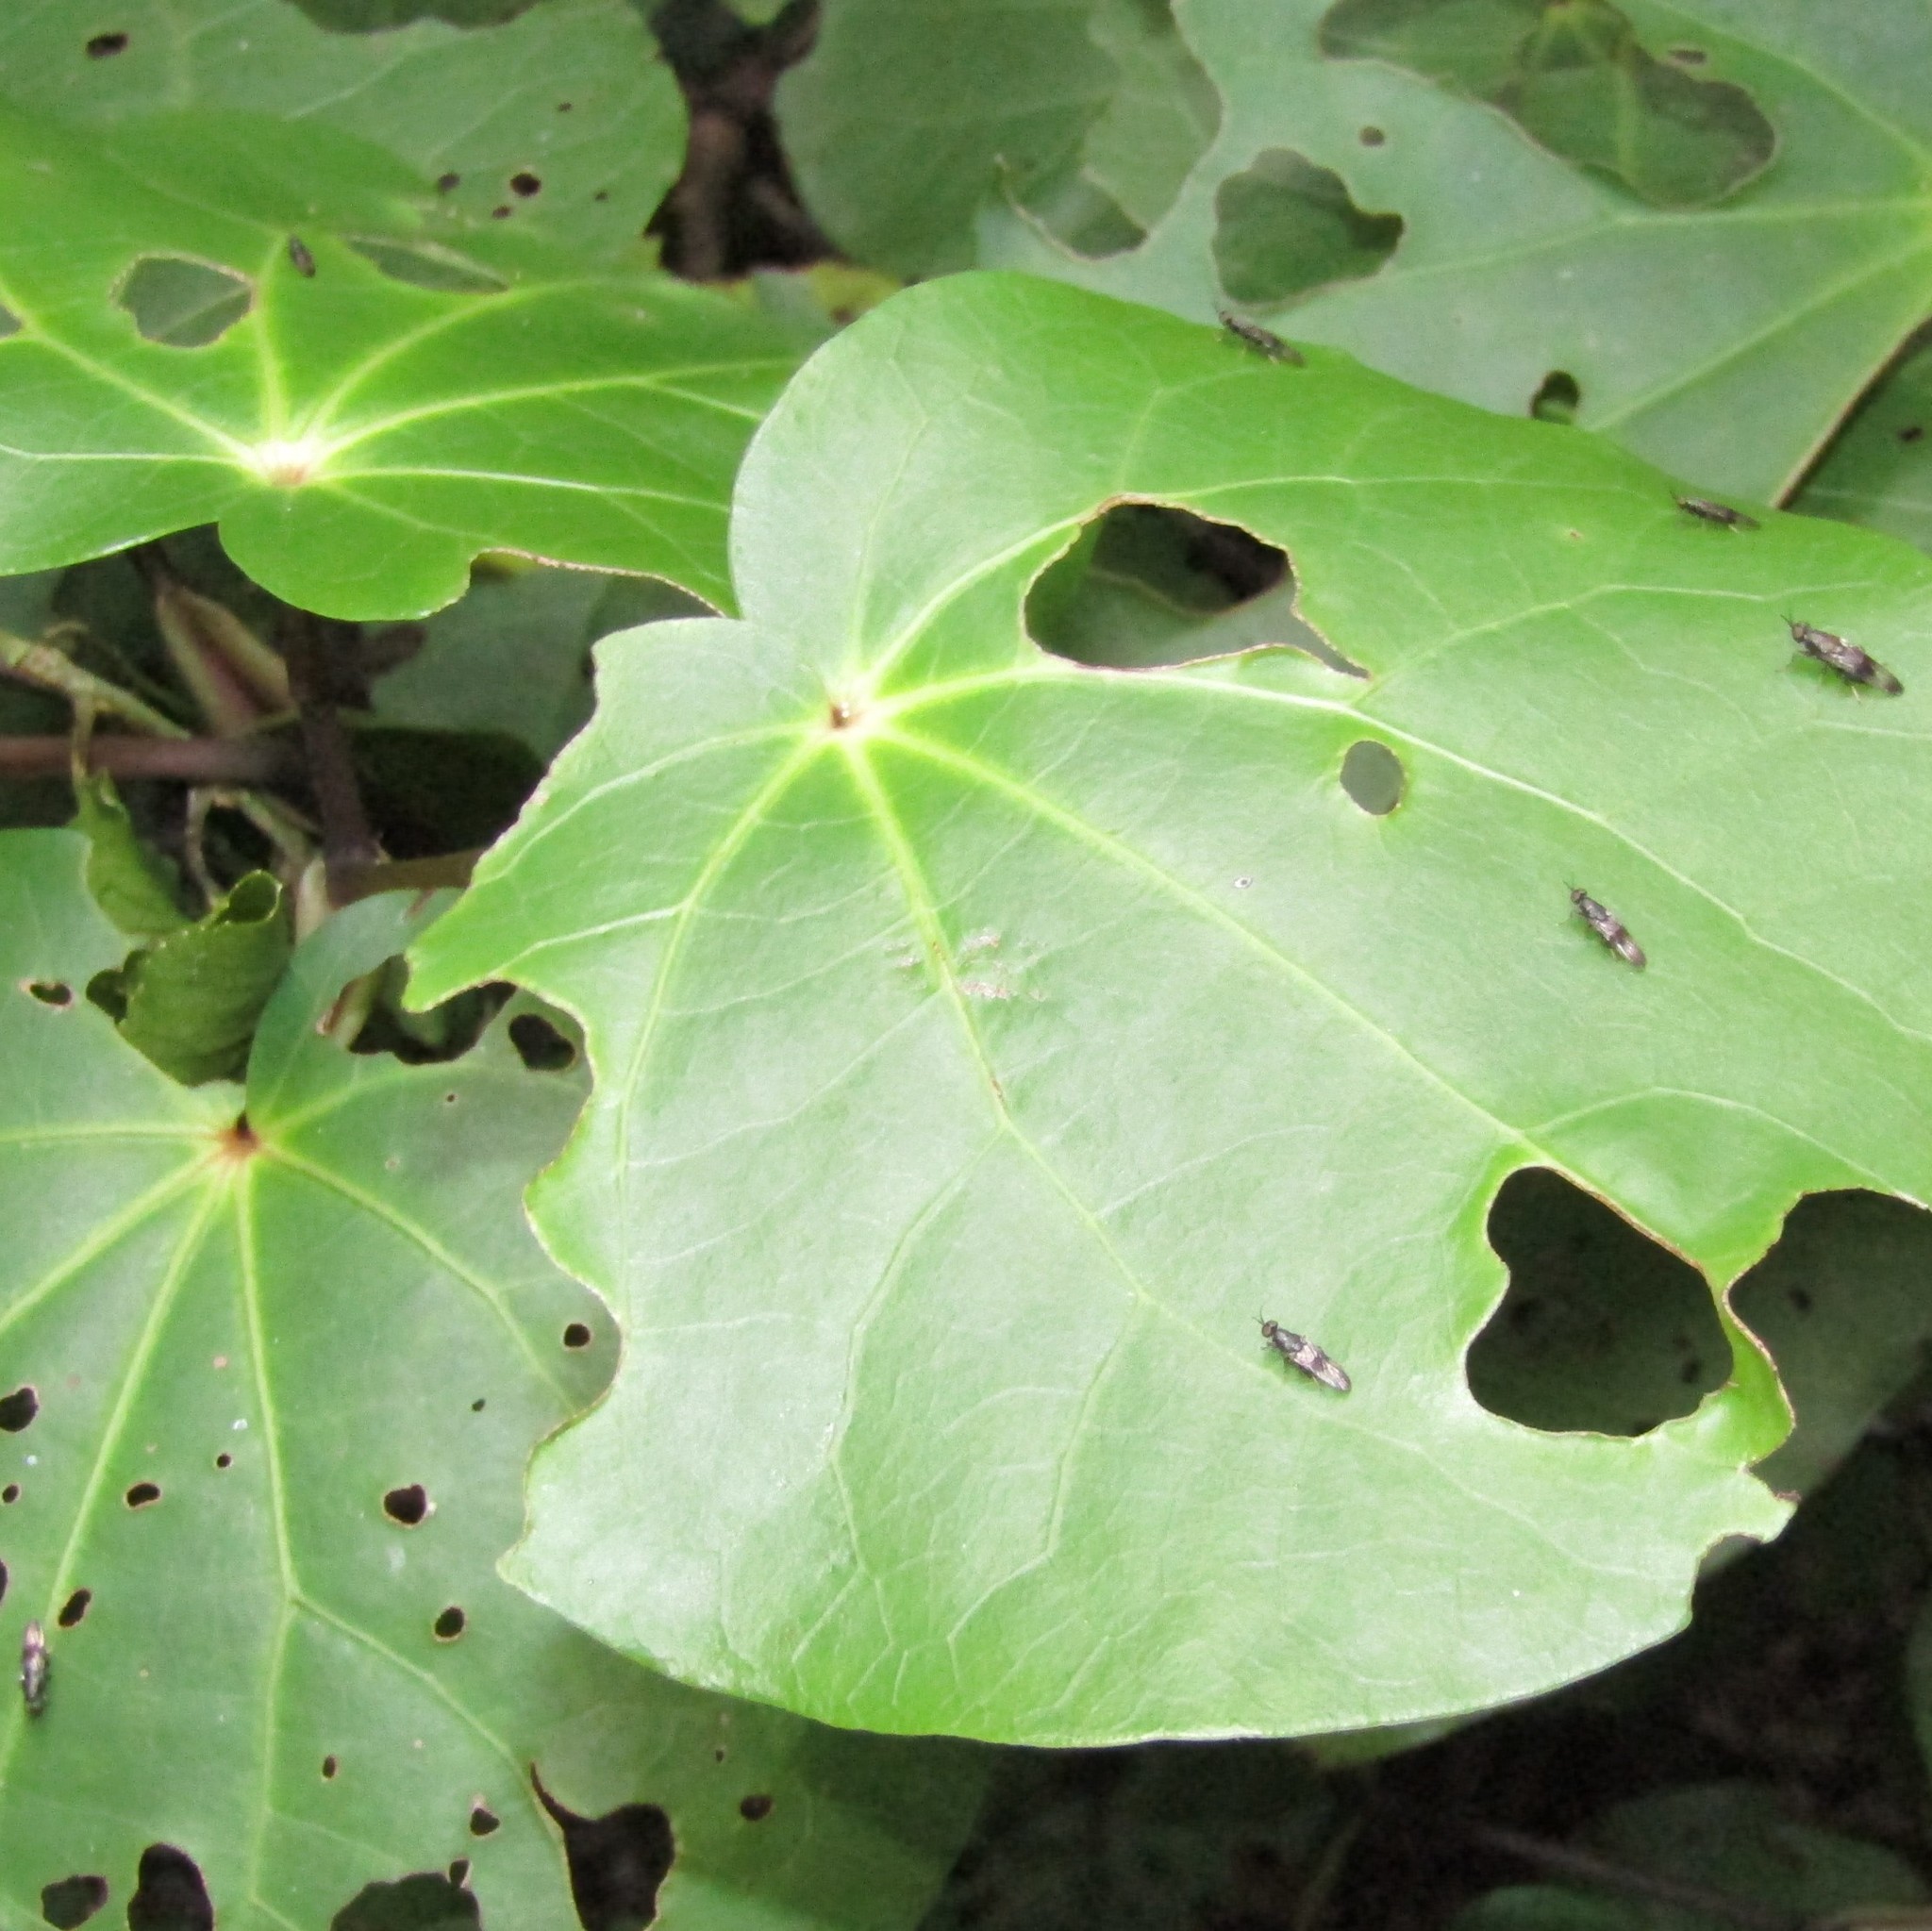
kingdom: Animalia
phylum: Arthropoda
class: Insecta
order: Diptera
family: Stratiomyidae
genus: Dysbiota
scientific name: Dysbiota peregrina
